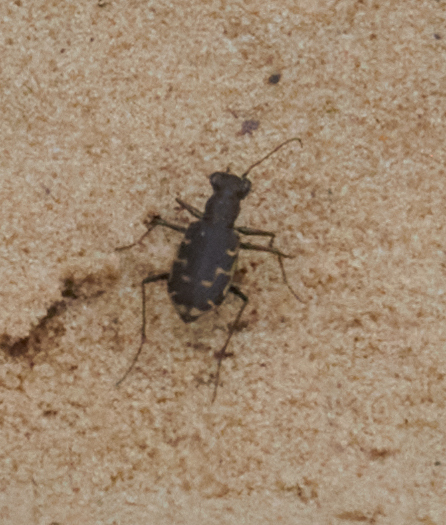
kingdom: Animalia
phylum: Arthropoda
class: Insecta
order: Coleoptera
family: Carabidae
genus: Cicindela
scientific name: Cicindela repanda
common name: Bronzed tiger beetle
